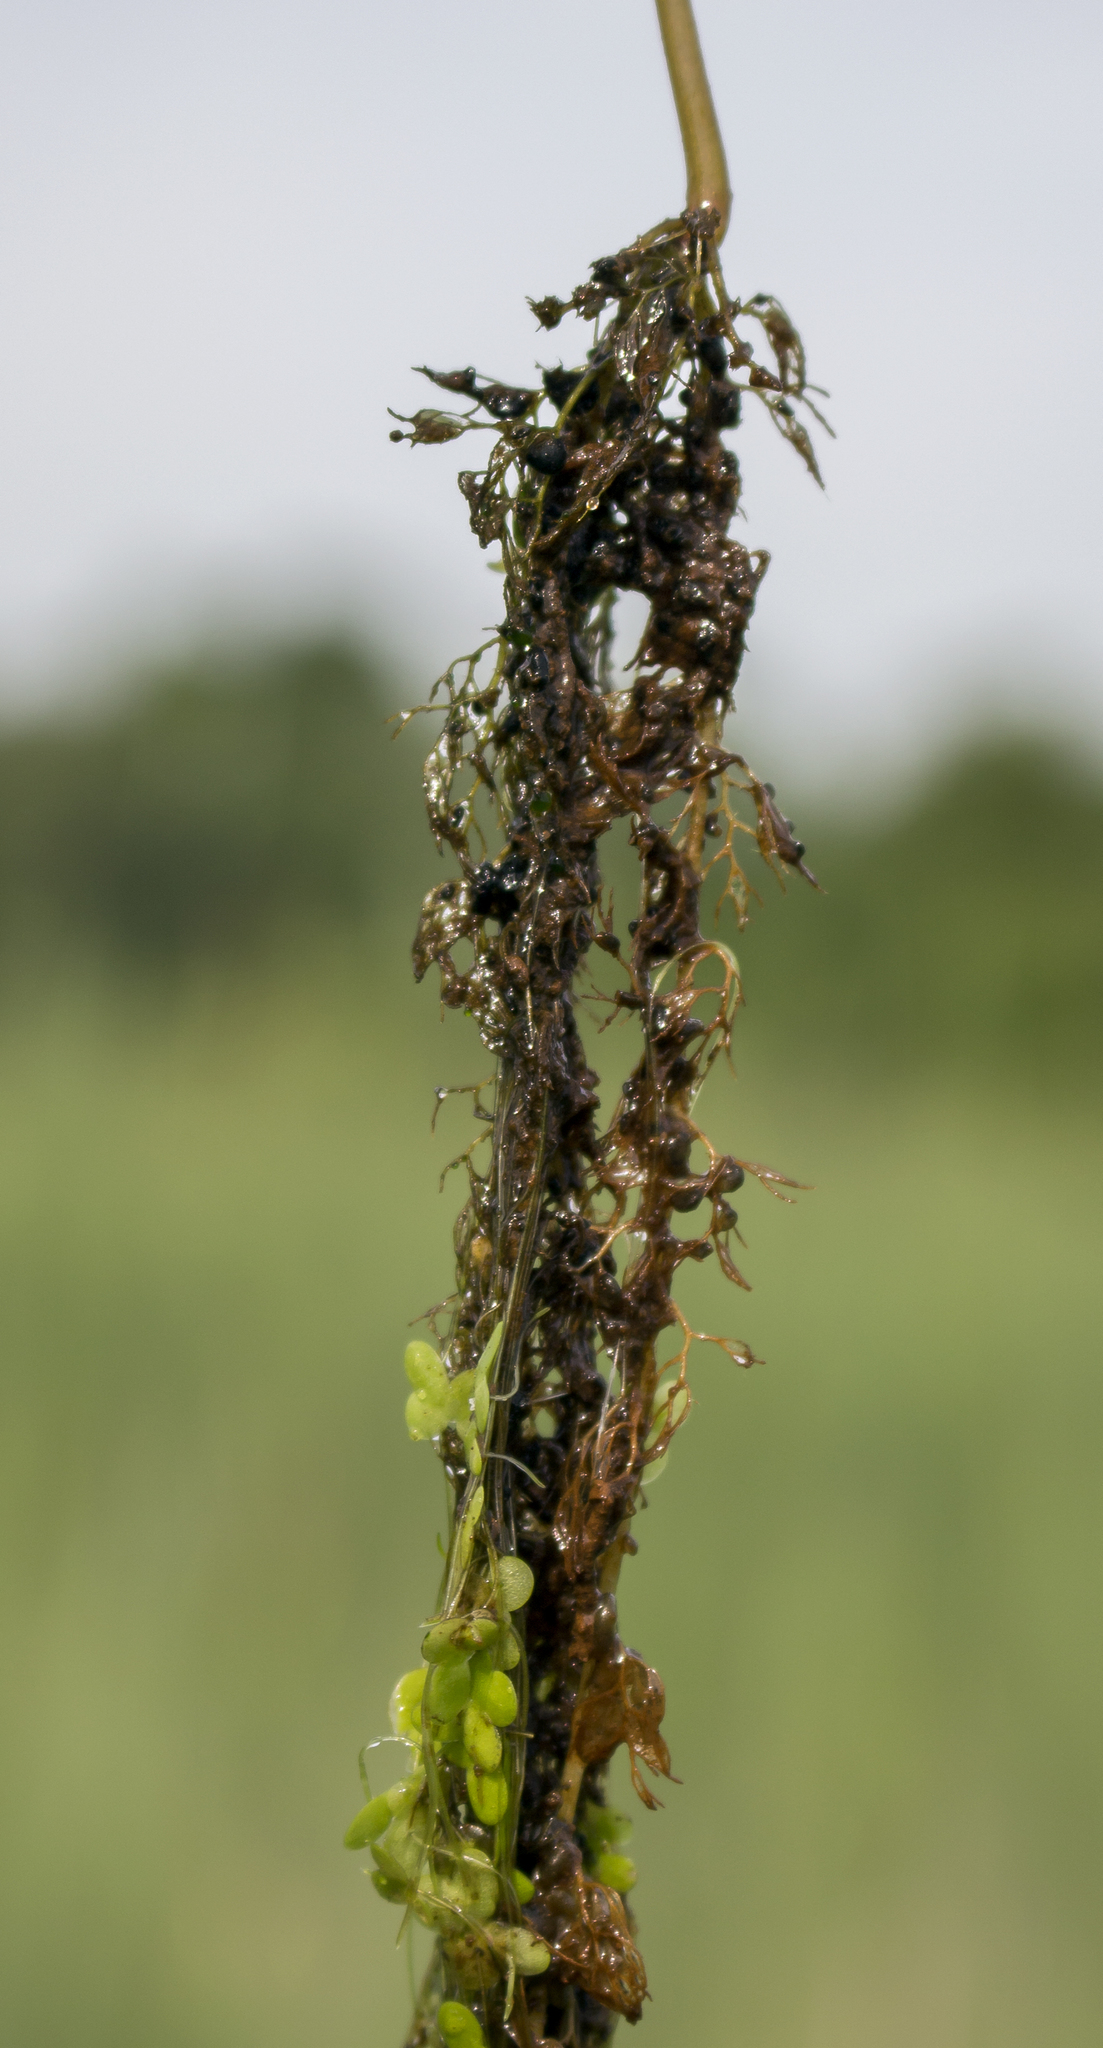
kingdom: Plantae
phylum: Tracheophyta
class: Magnoliopsida
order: Lamiales
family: Lentibulariaceae
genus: Utricularia
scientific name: Utricularia macrorhiza
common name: Common bladderwort
